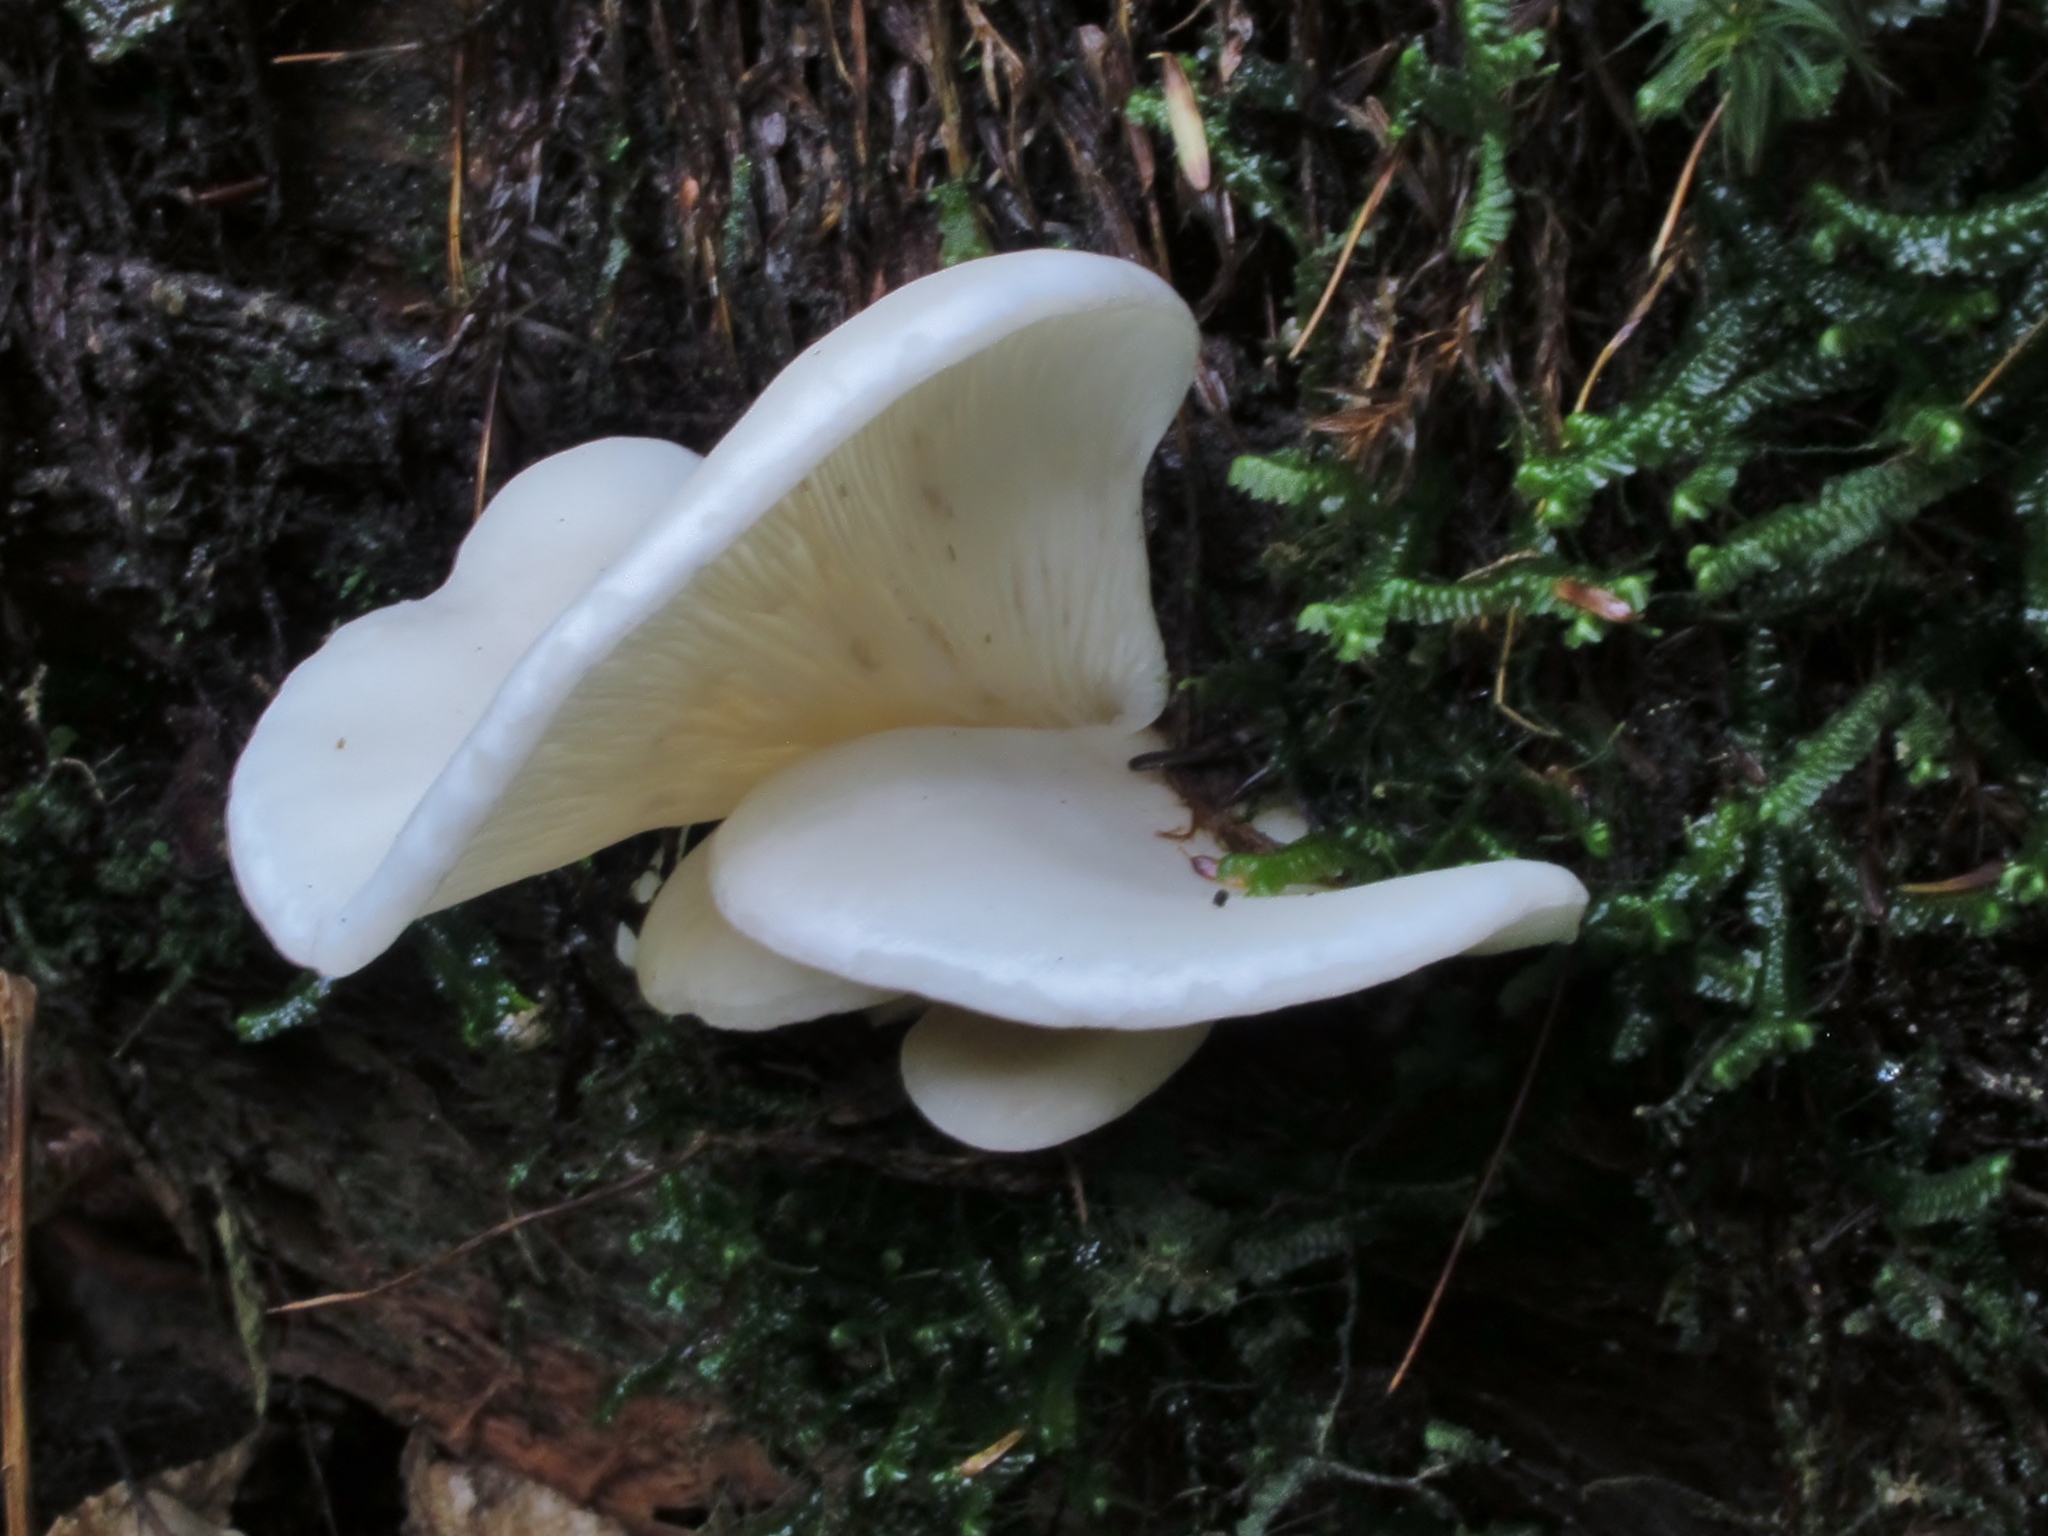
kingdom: Fungi
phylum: Basidiomycota
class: Agaricomycetes
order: Agaricales
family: Marasmiaceae
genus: Pleurocybella
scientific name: Pleurocybella porrigens
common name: Angel's wings
